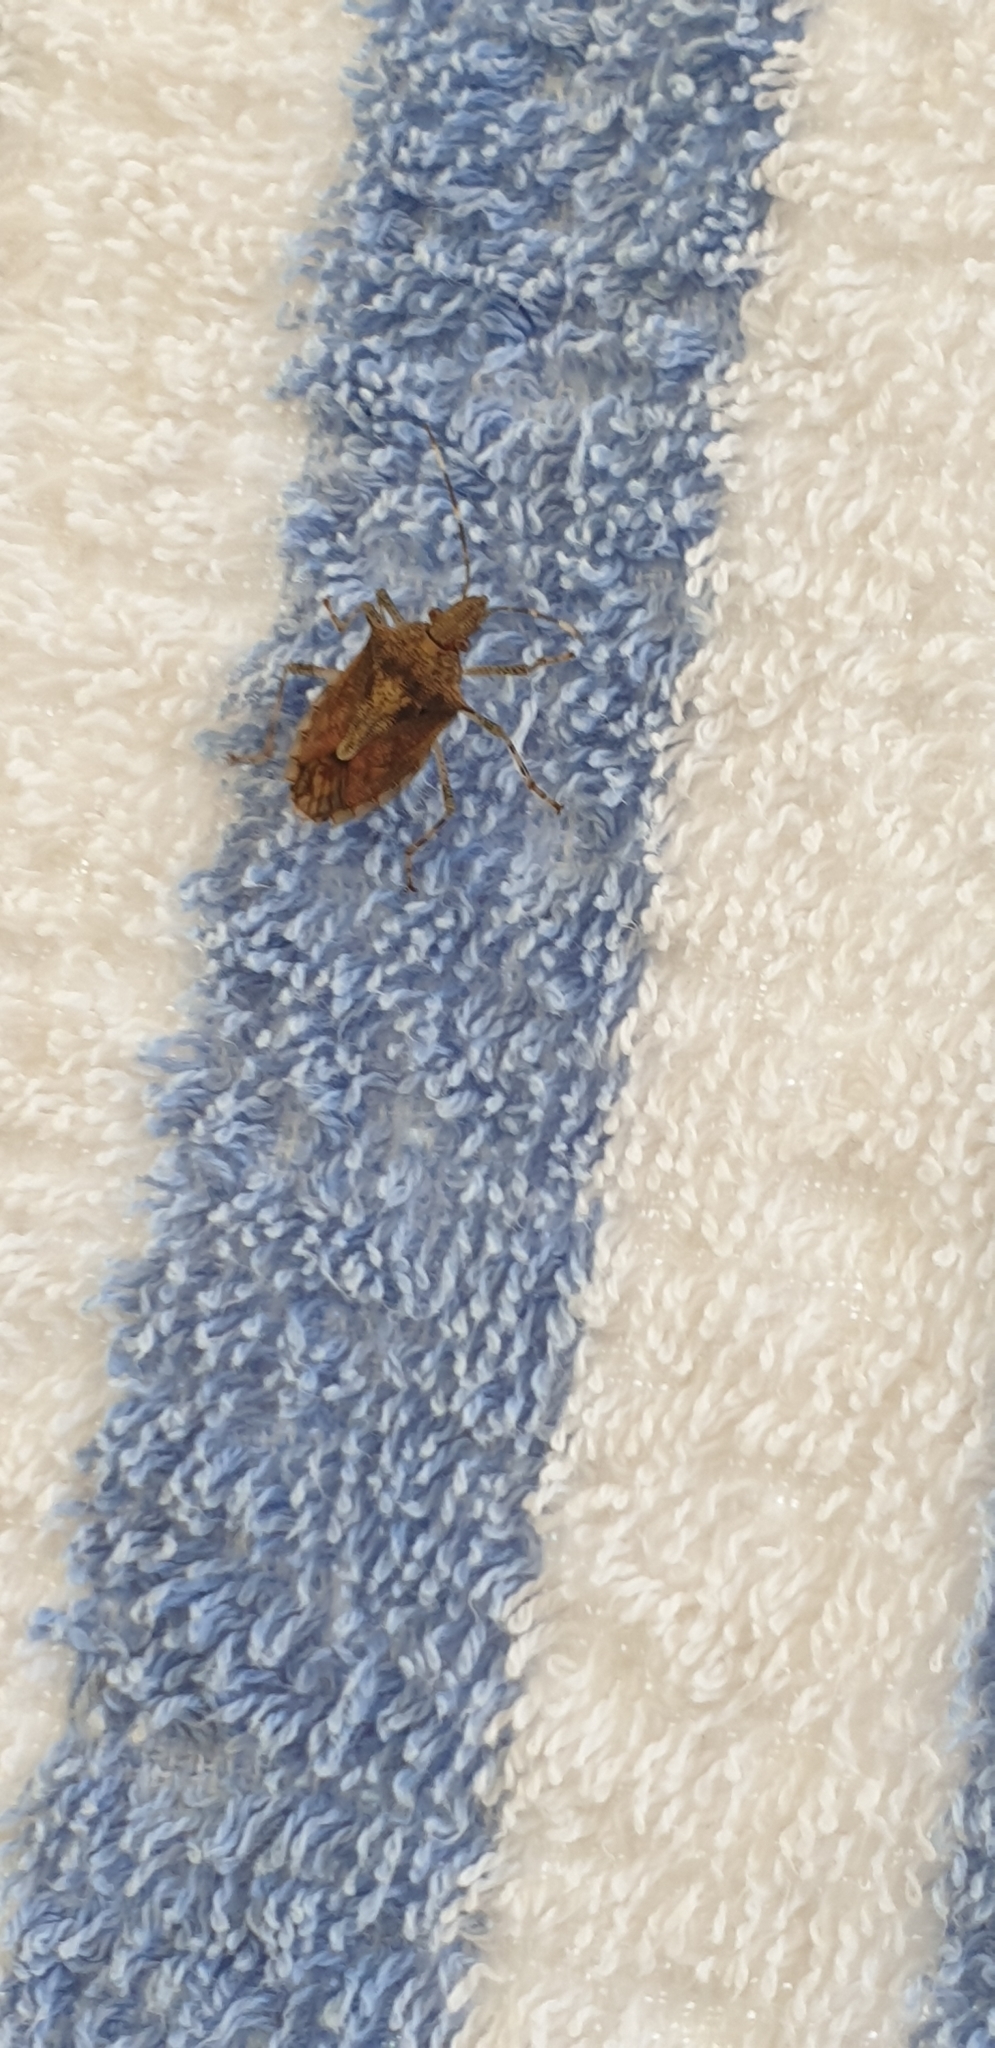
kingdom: Animalia
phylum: Arthropoda
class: Insecta
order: Hemiptera
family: Pentatomidae
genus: Bromocoris
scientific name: Bromocoris
